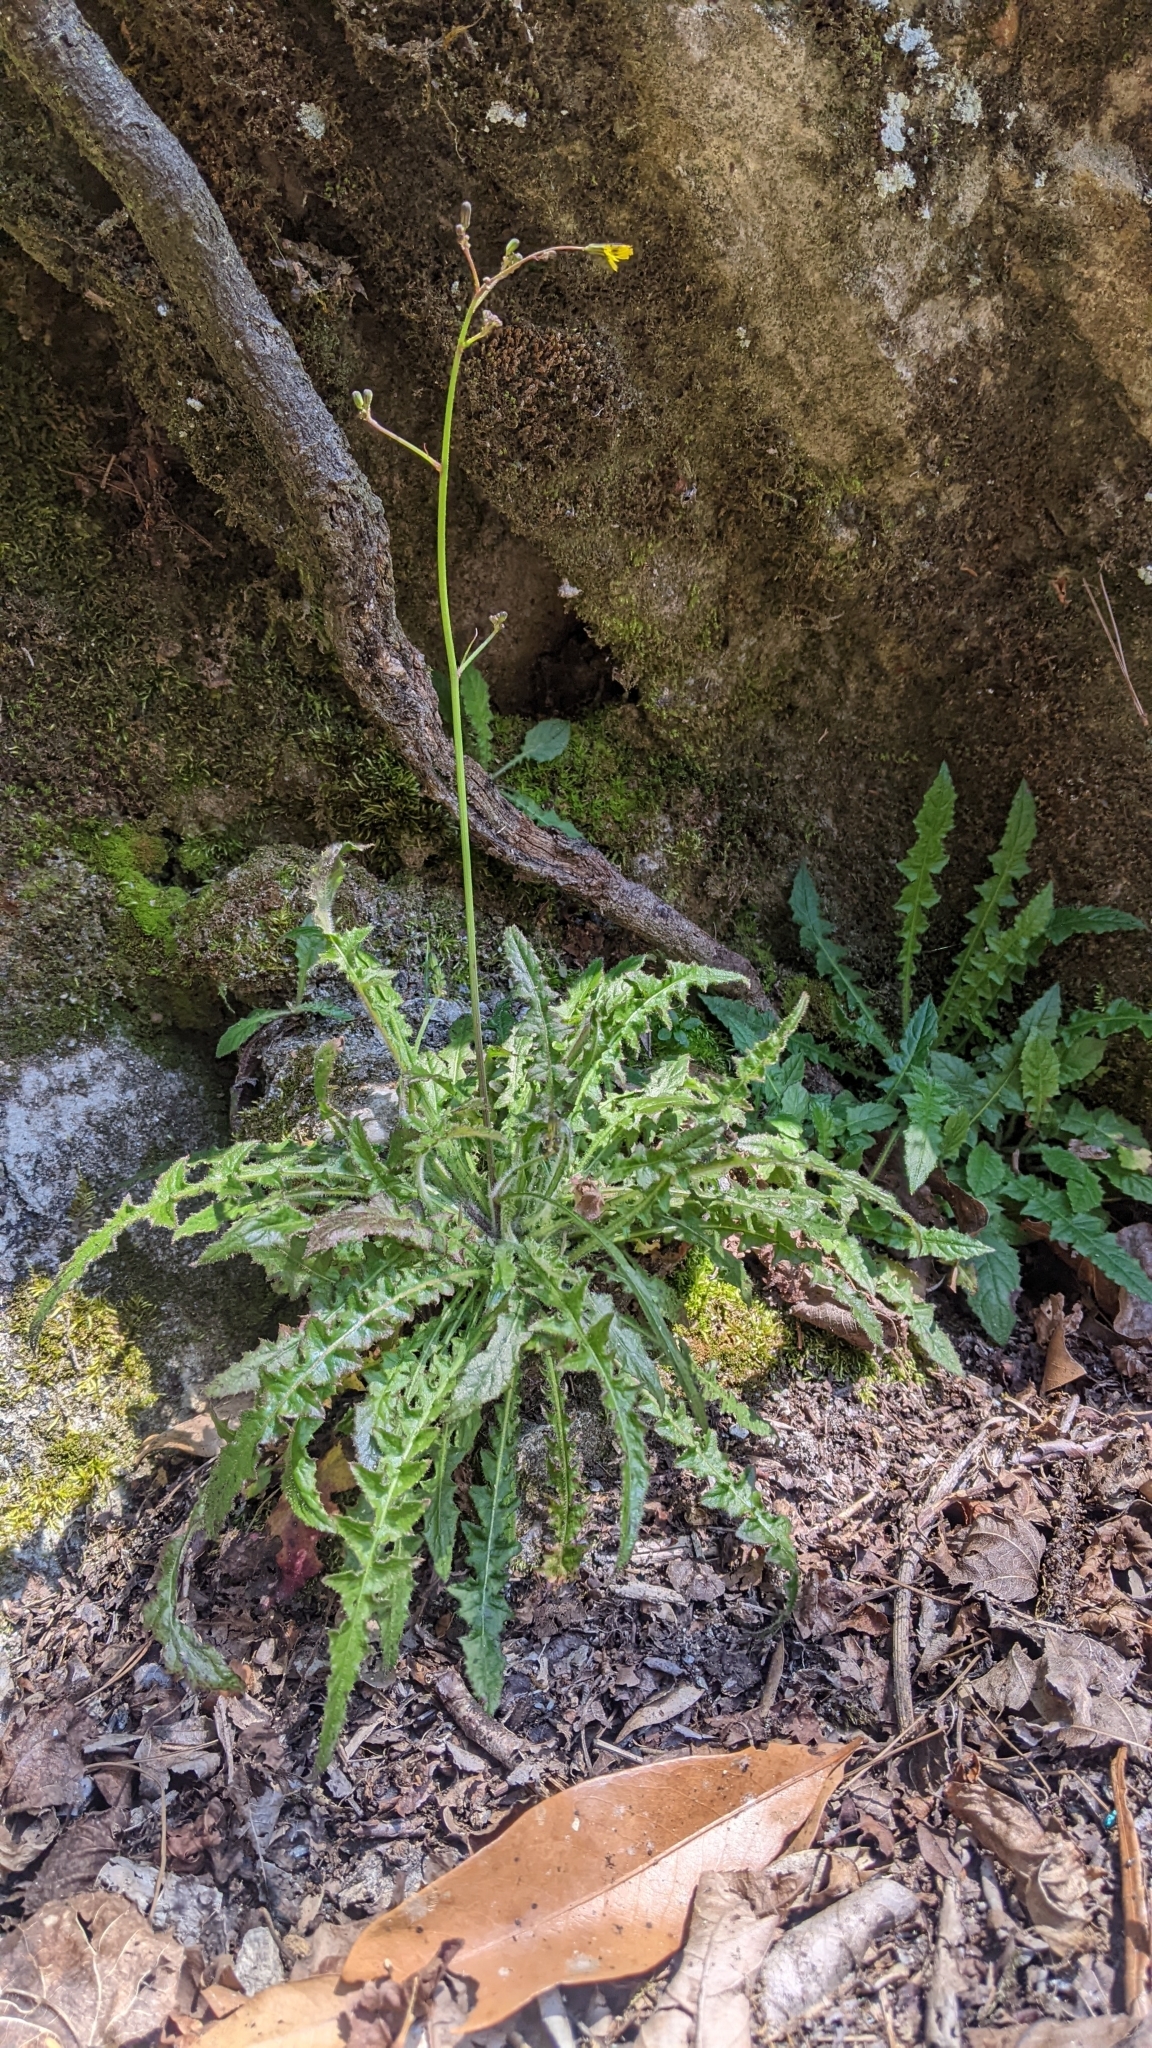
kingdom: Plantae
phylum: Tracheophyta
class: Magnoliopsida
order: Asterales
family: Asteraceae
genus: Youngia
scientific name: Youngia japonica
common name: Oriental false hawksbeard
